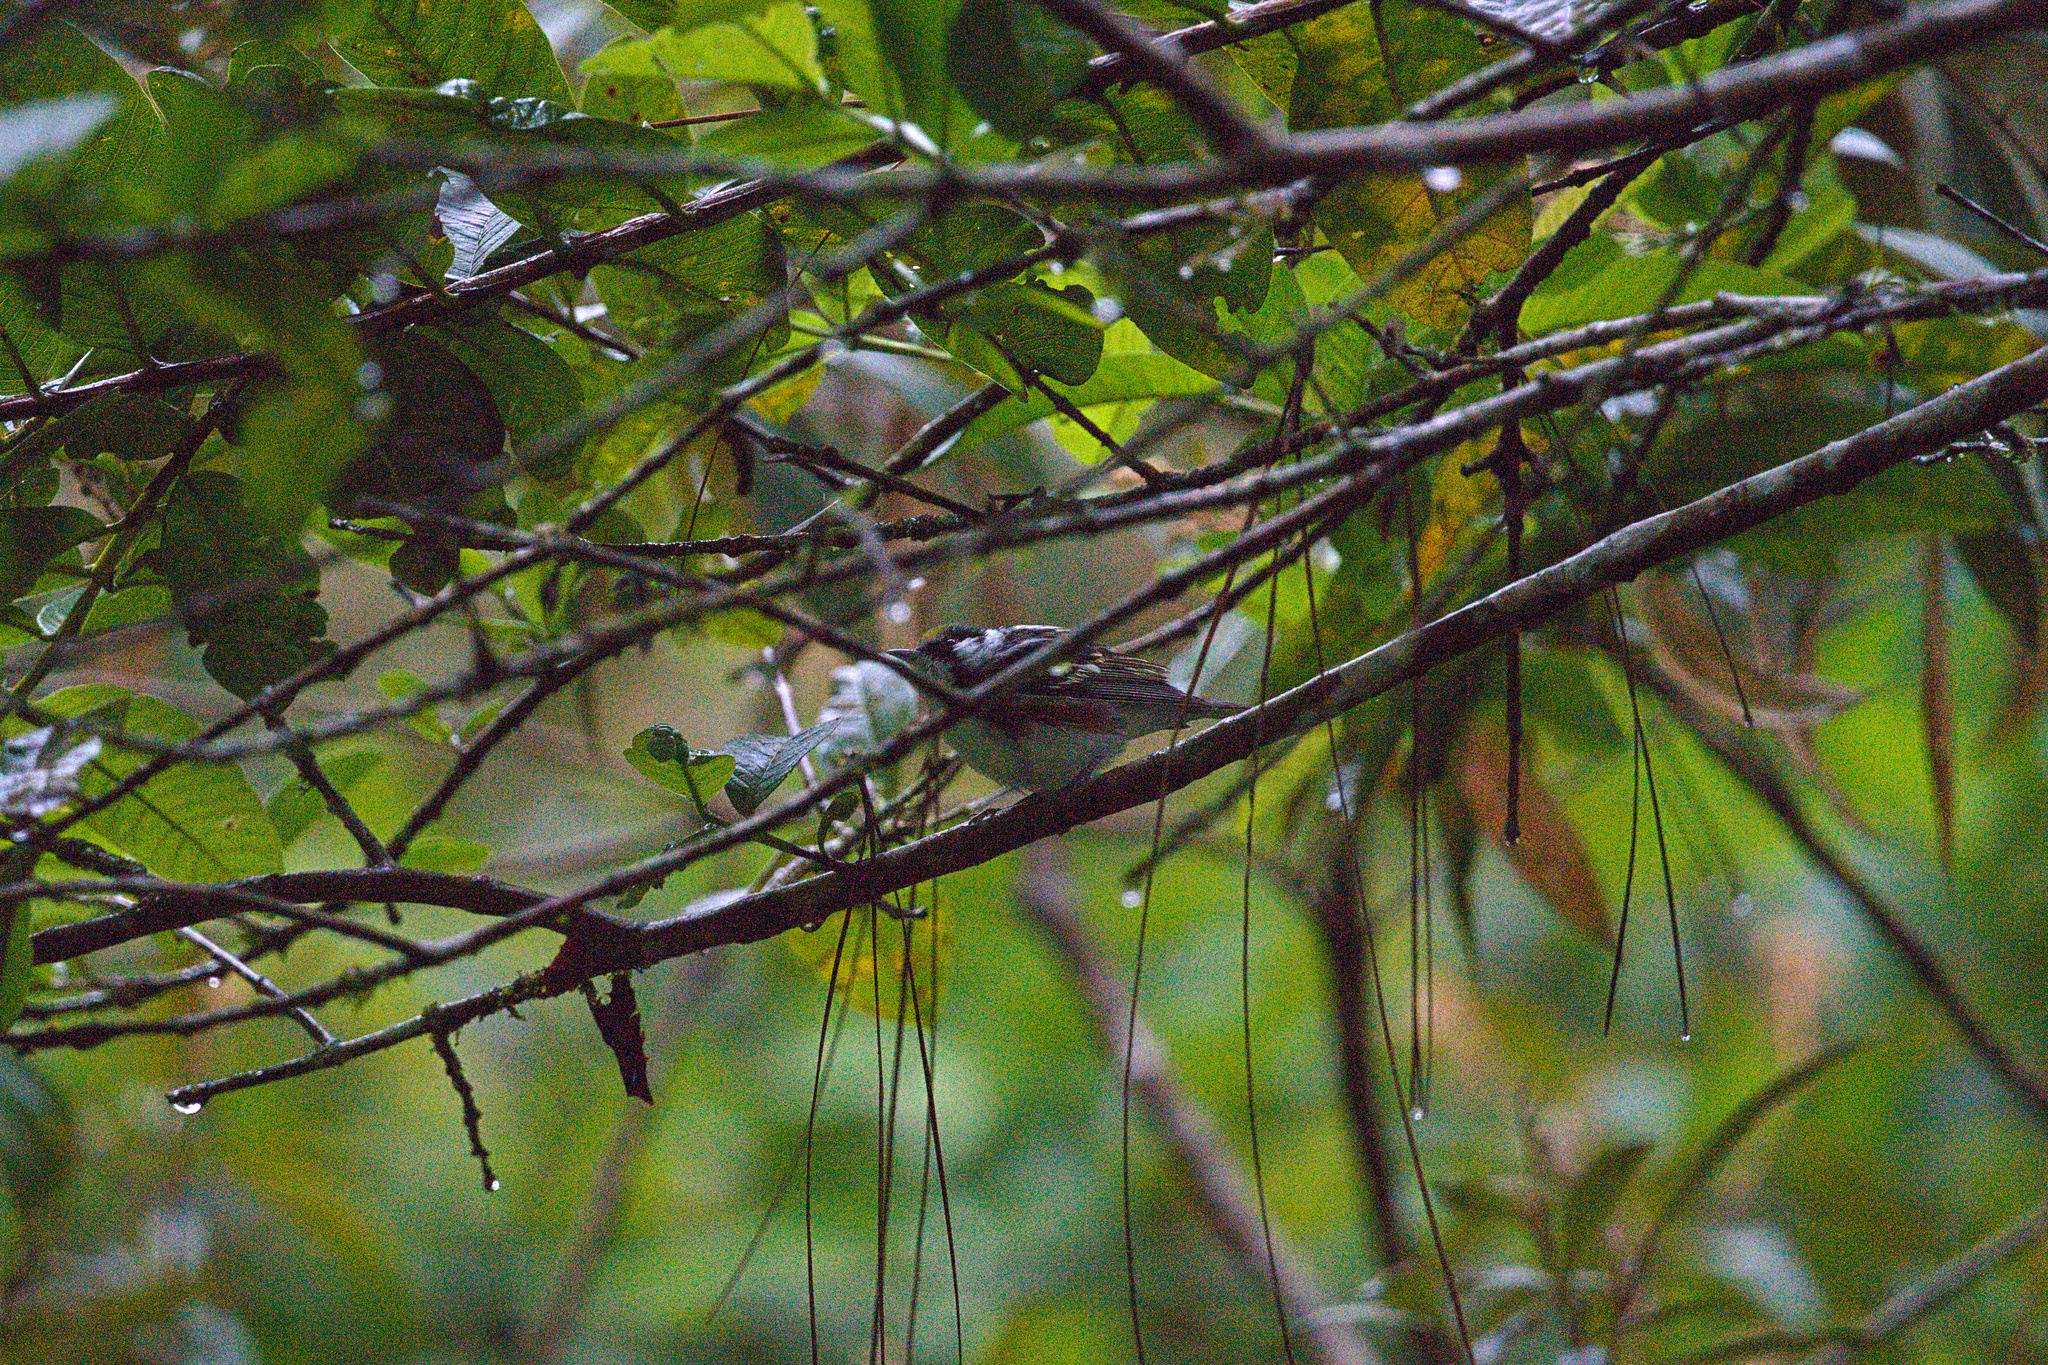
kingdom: Animalia
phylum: Chordata
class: Aves
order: Passeriformes
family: Parulidae
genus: Setophaga
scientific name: Setophaga pensylvanica
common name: Chestnut-sided warbler
